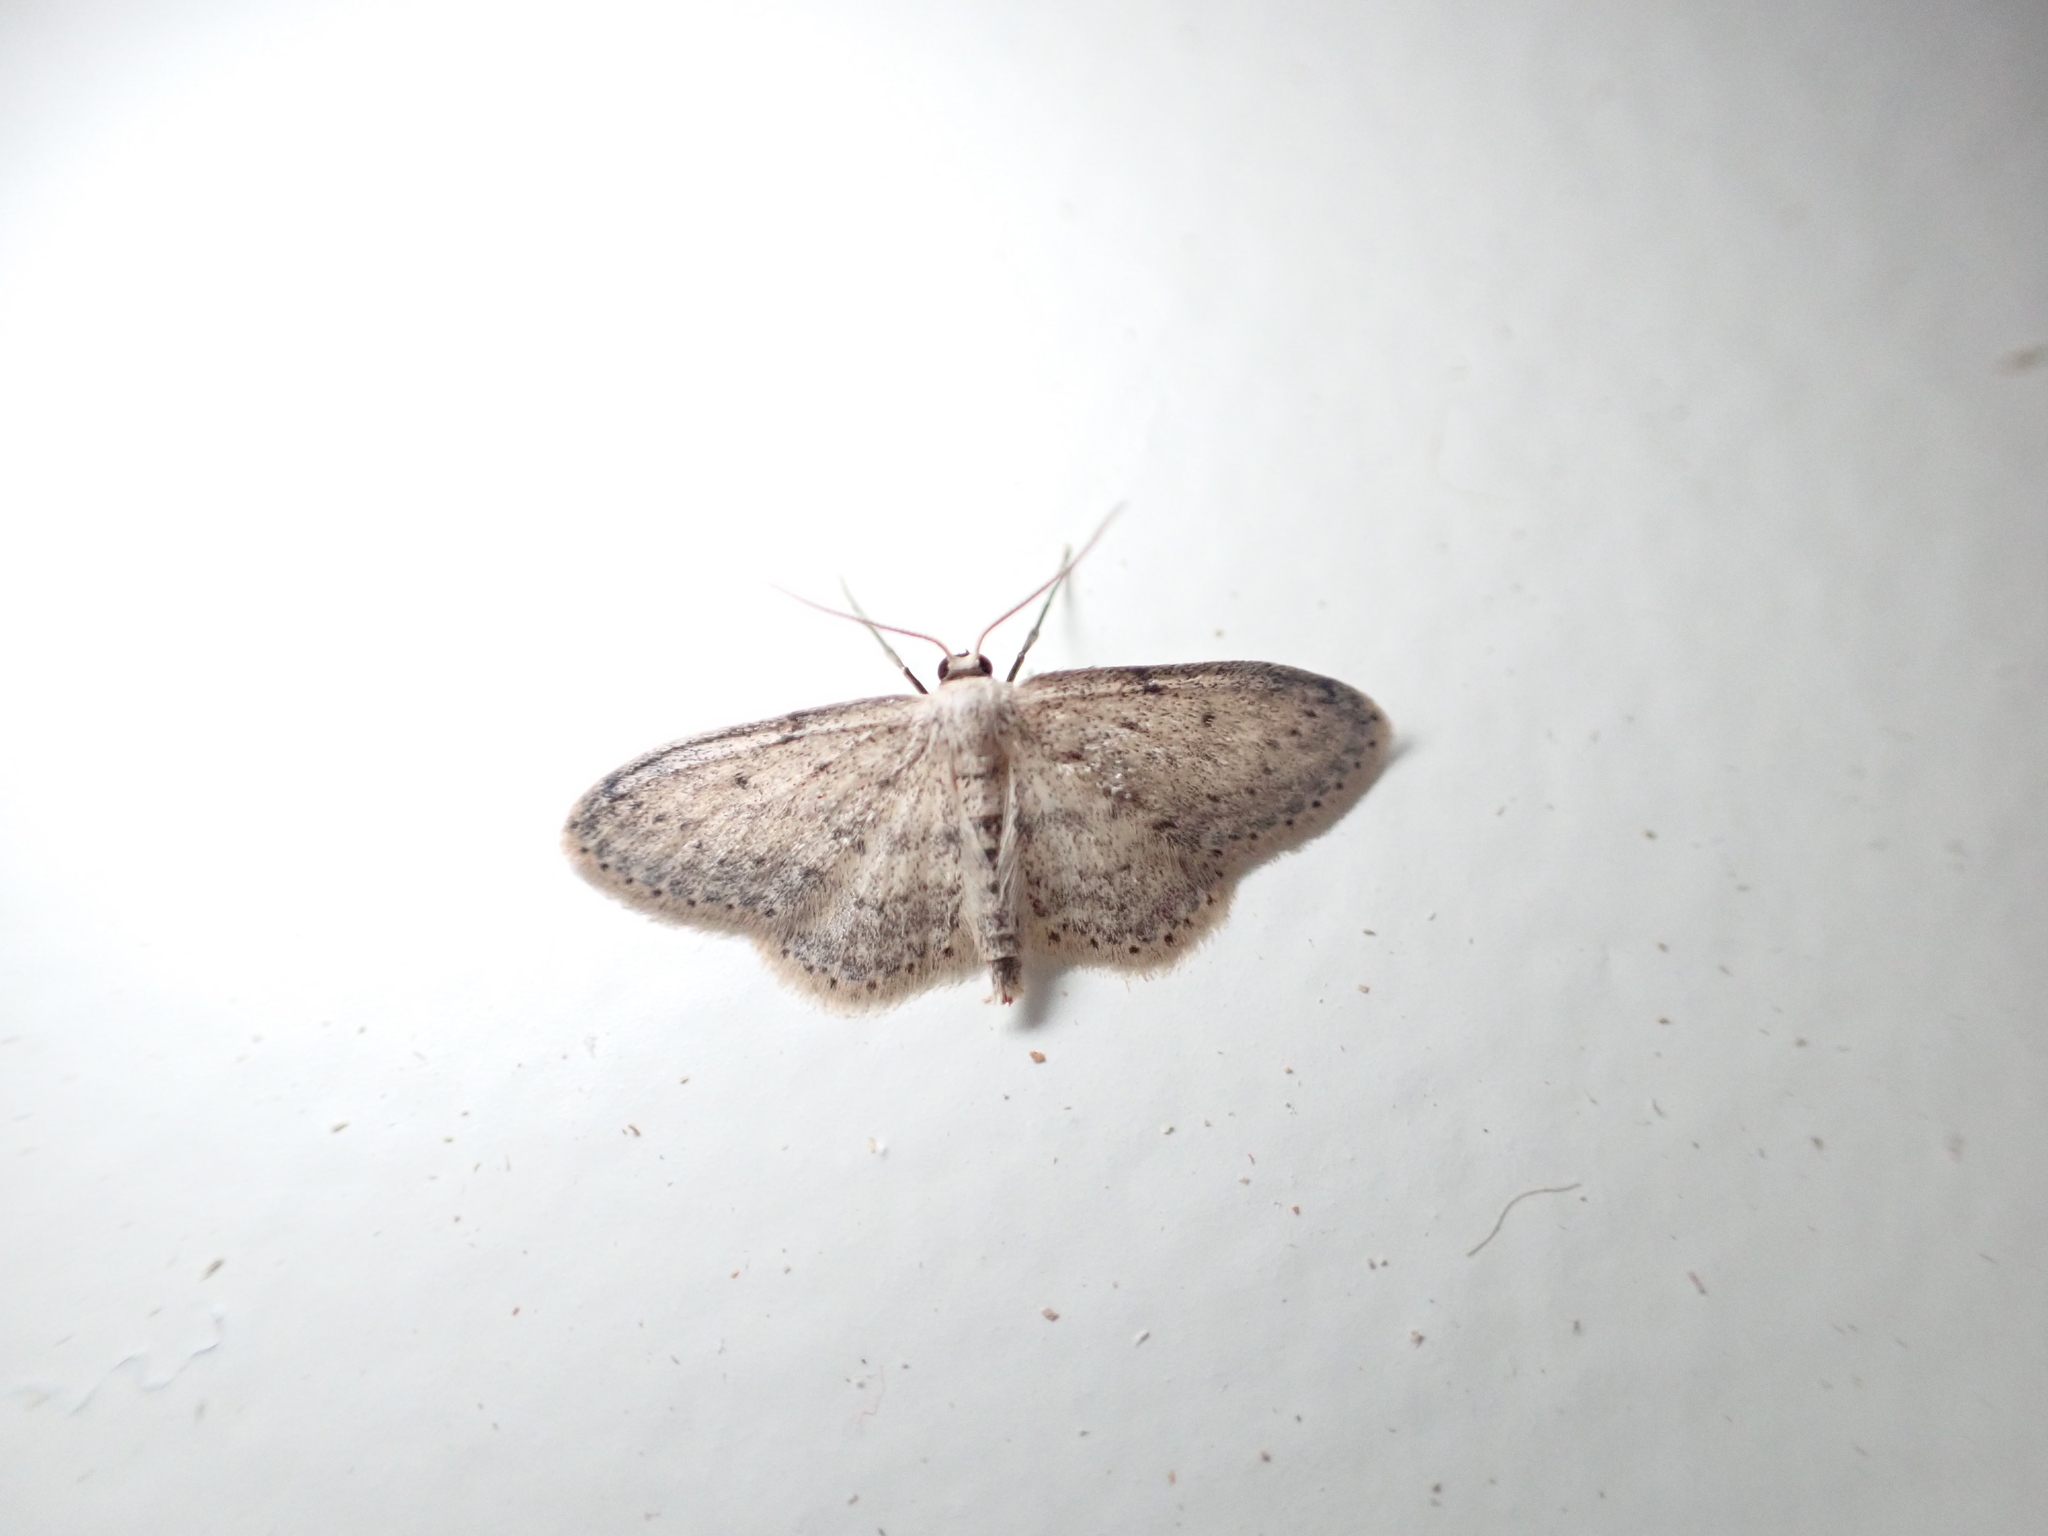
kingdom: Animalia
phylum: Arthropoda
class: Insecta
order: Lepidoptera
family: Geometridae
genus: Idaea
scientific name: Idaea seriata
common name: Small dusty wave
